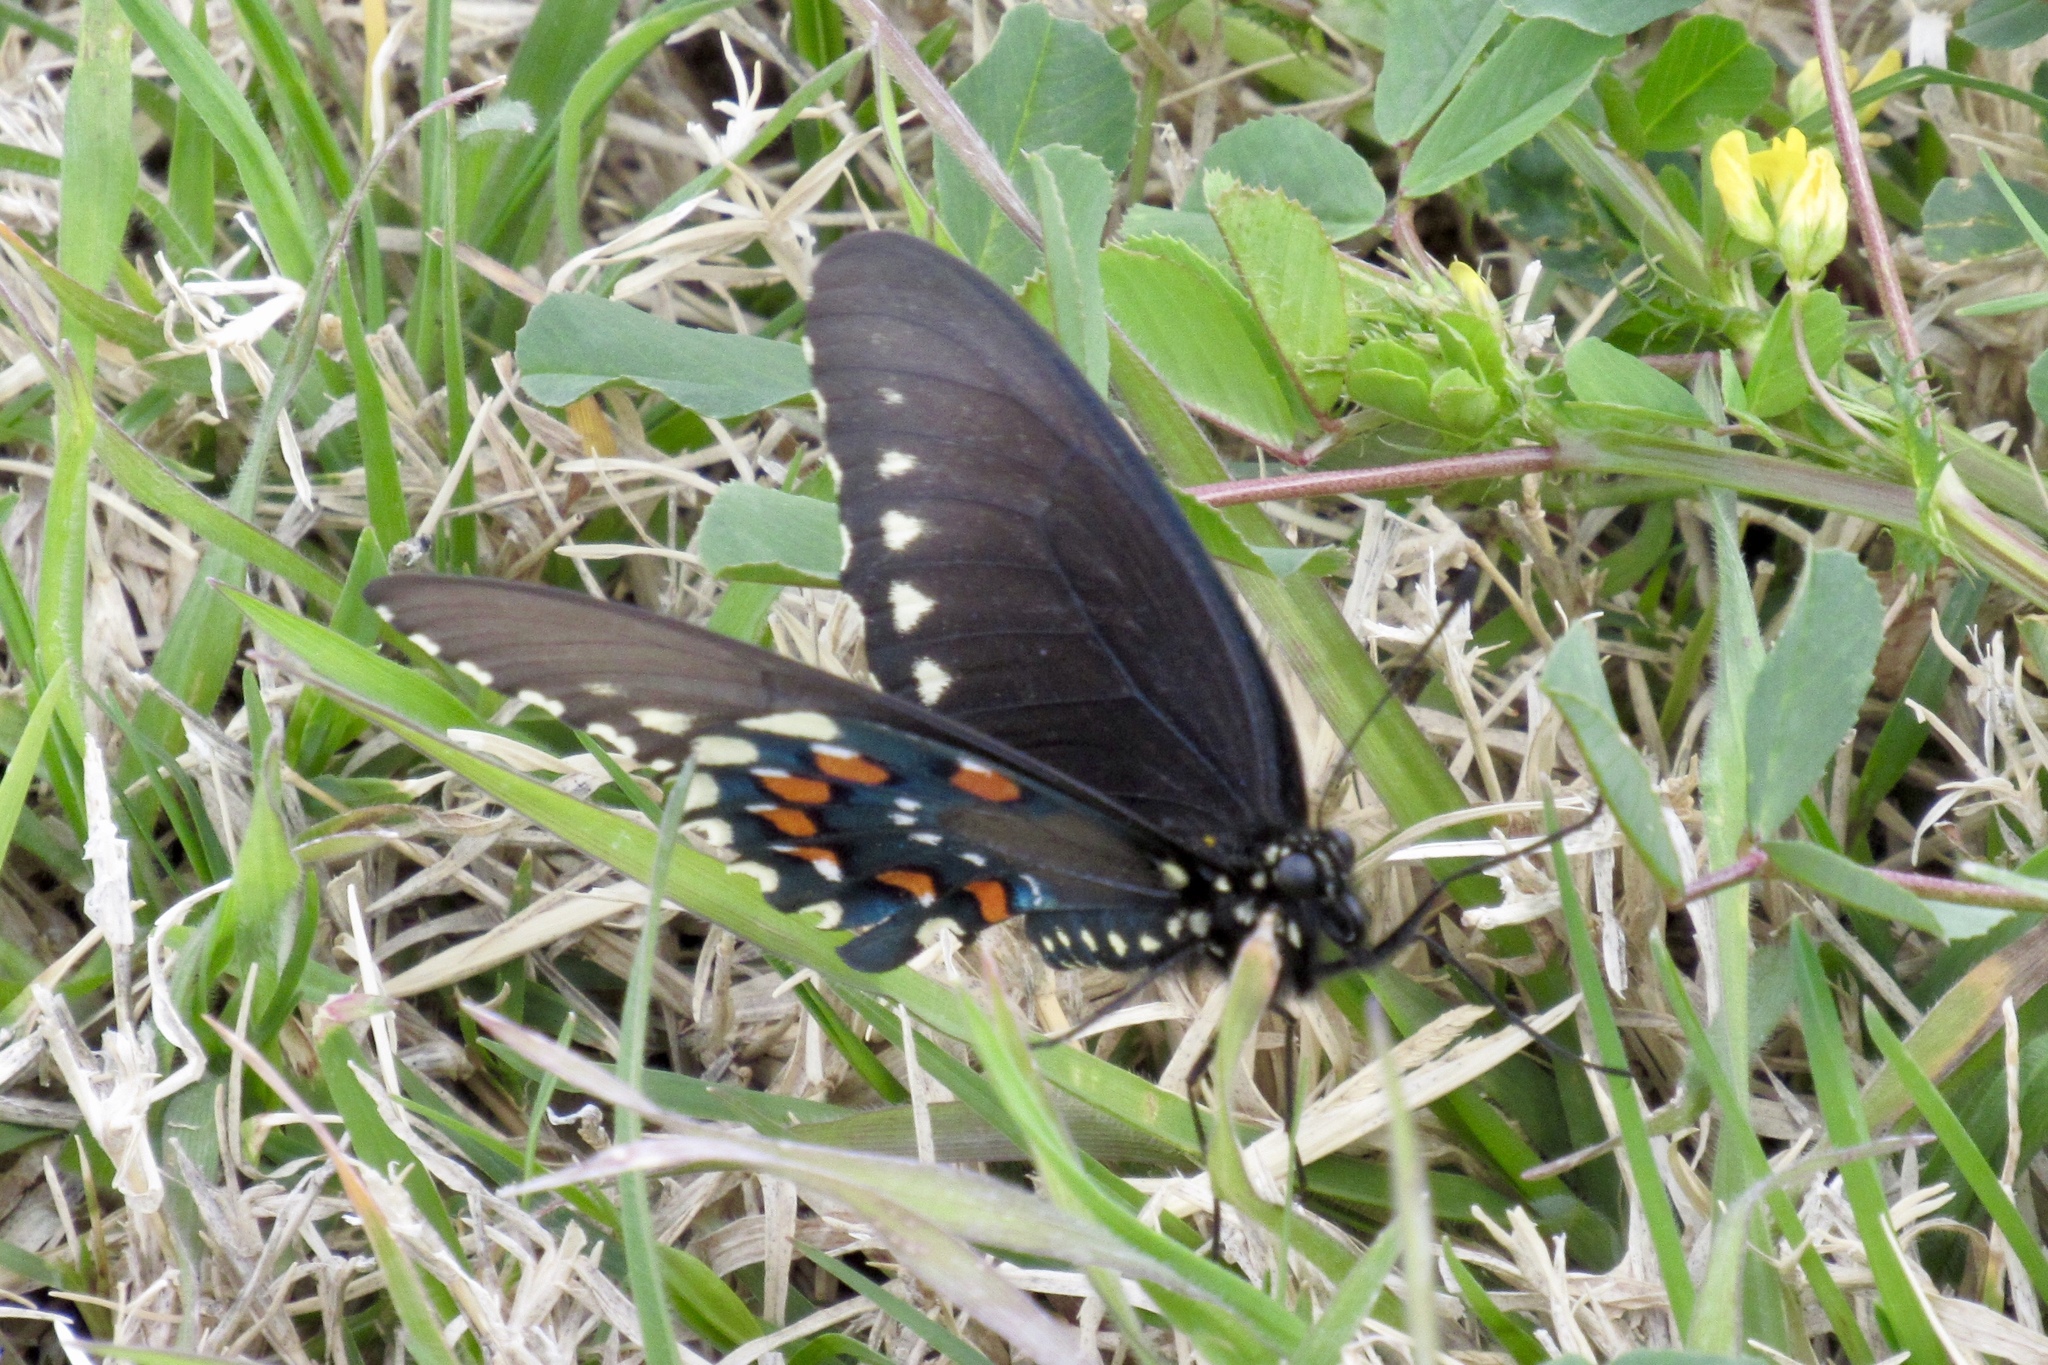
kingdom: Animalia
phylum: Arthropoda
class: Insecta
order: Lepidoptera
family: Papilionidae
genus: Battus
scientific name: Battus philenor
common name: Pipevine swallowtail
